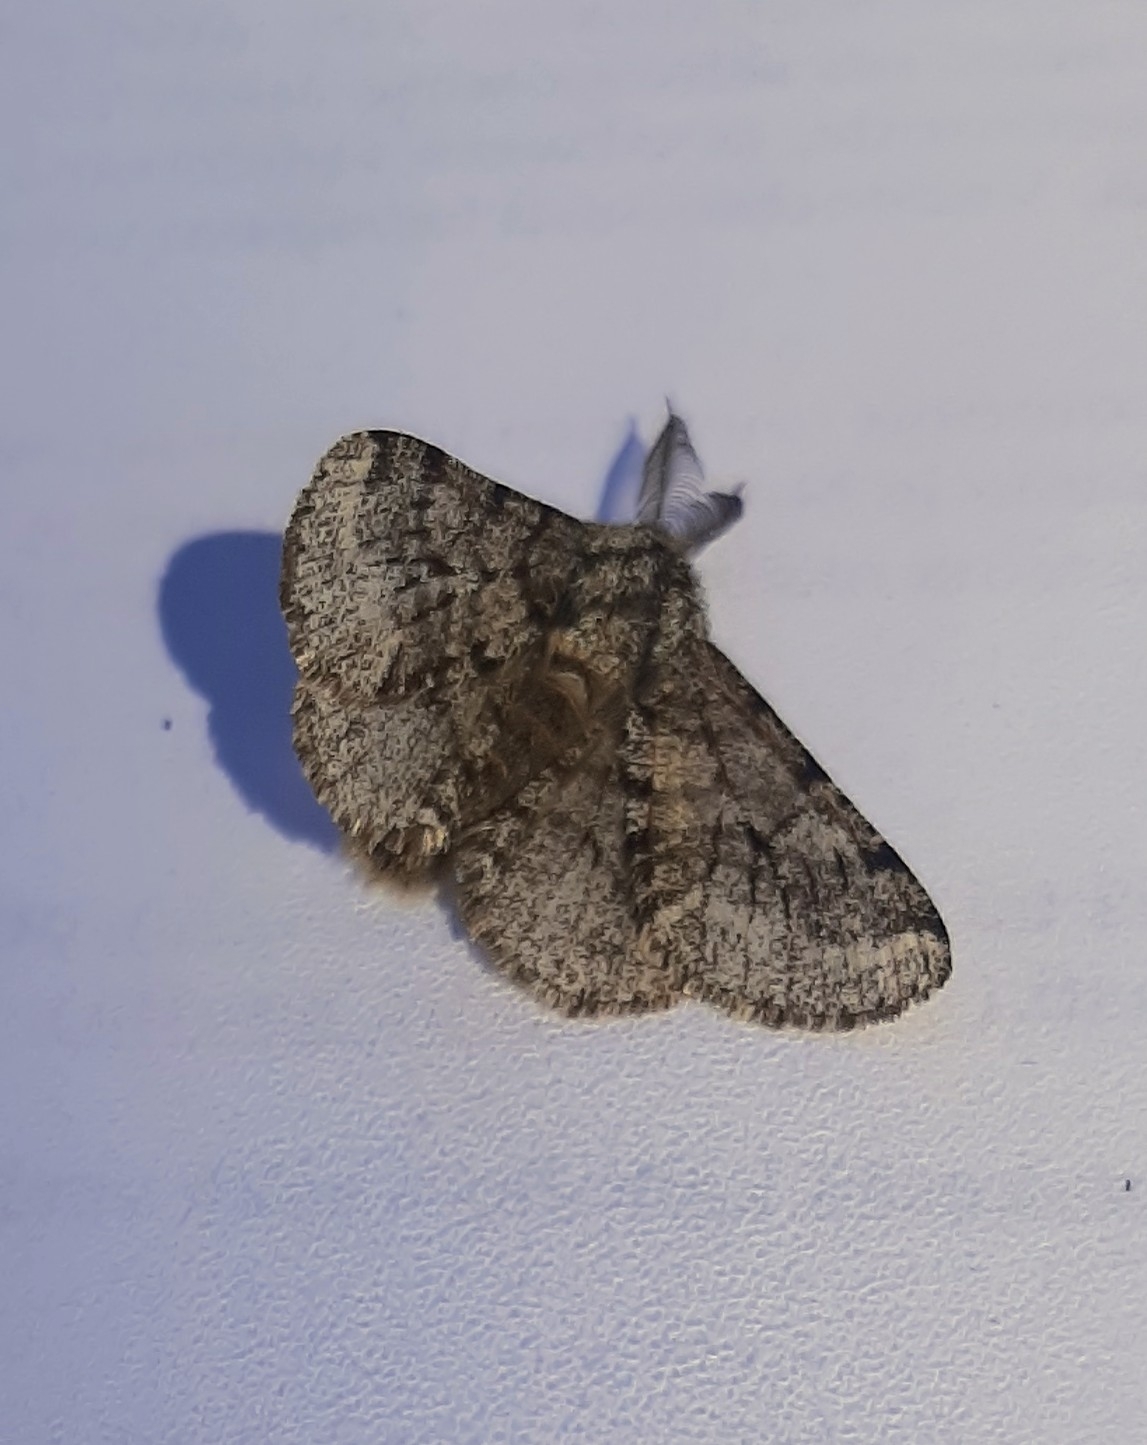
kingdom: Animalia
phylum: Arthropoda
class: Insecta
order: Lepidoptera
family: Geometridae
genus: Lycia
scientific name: Lycia hirtaria
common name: Brindled beauty
